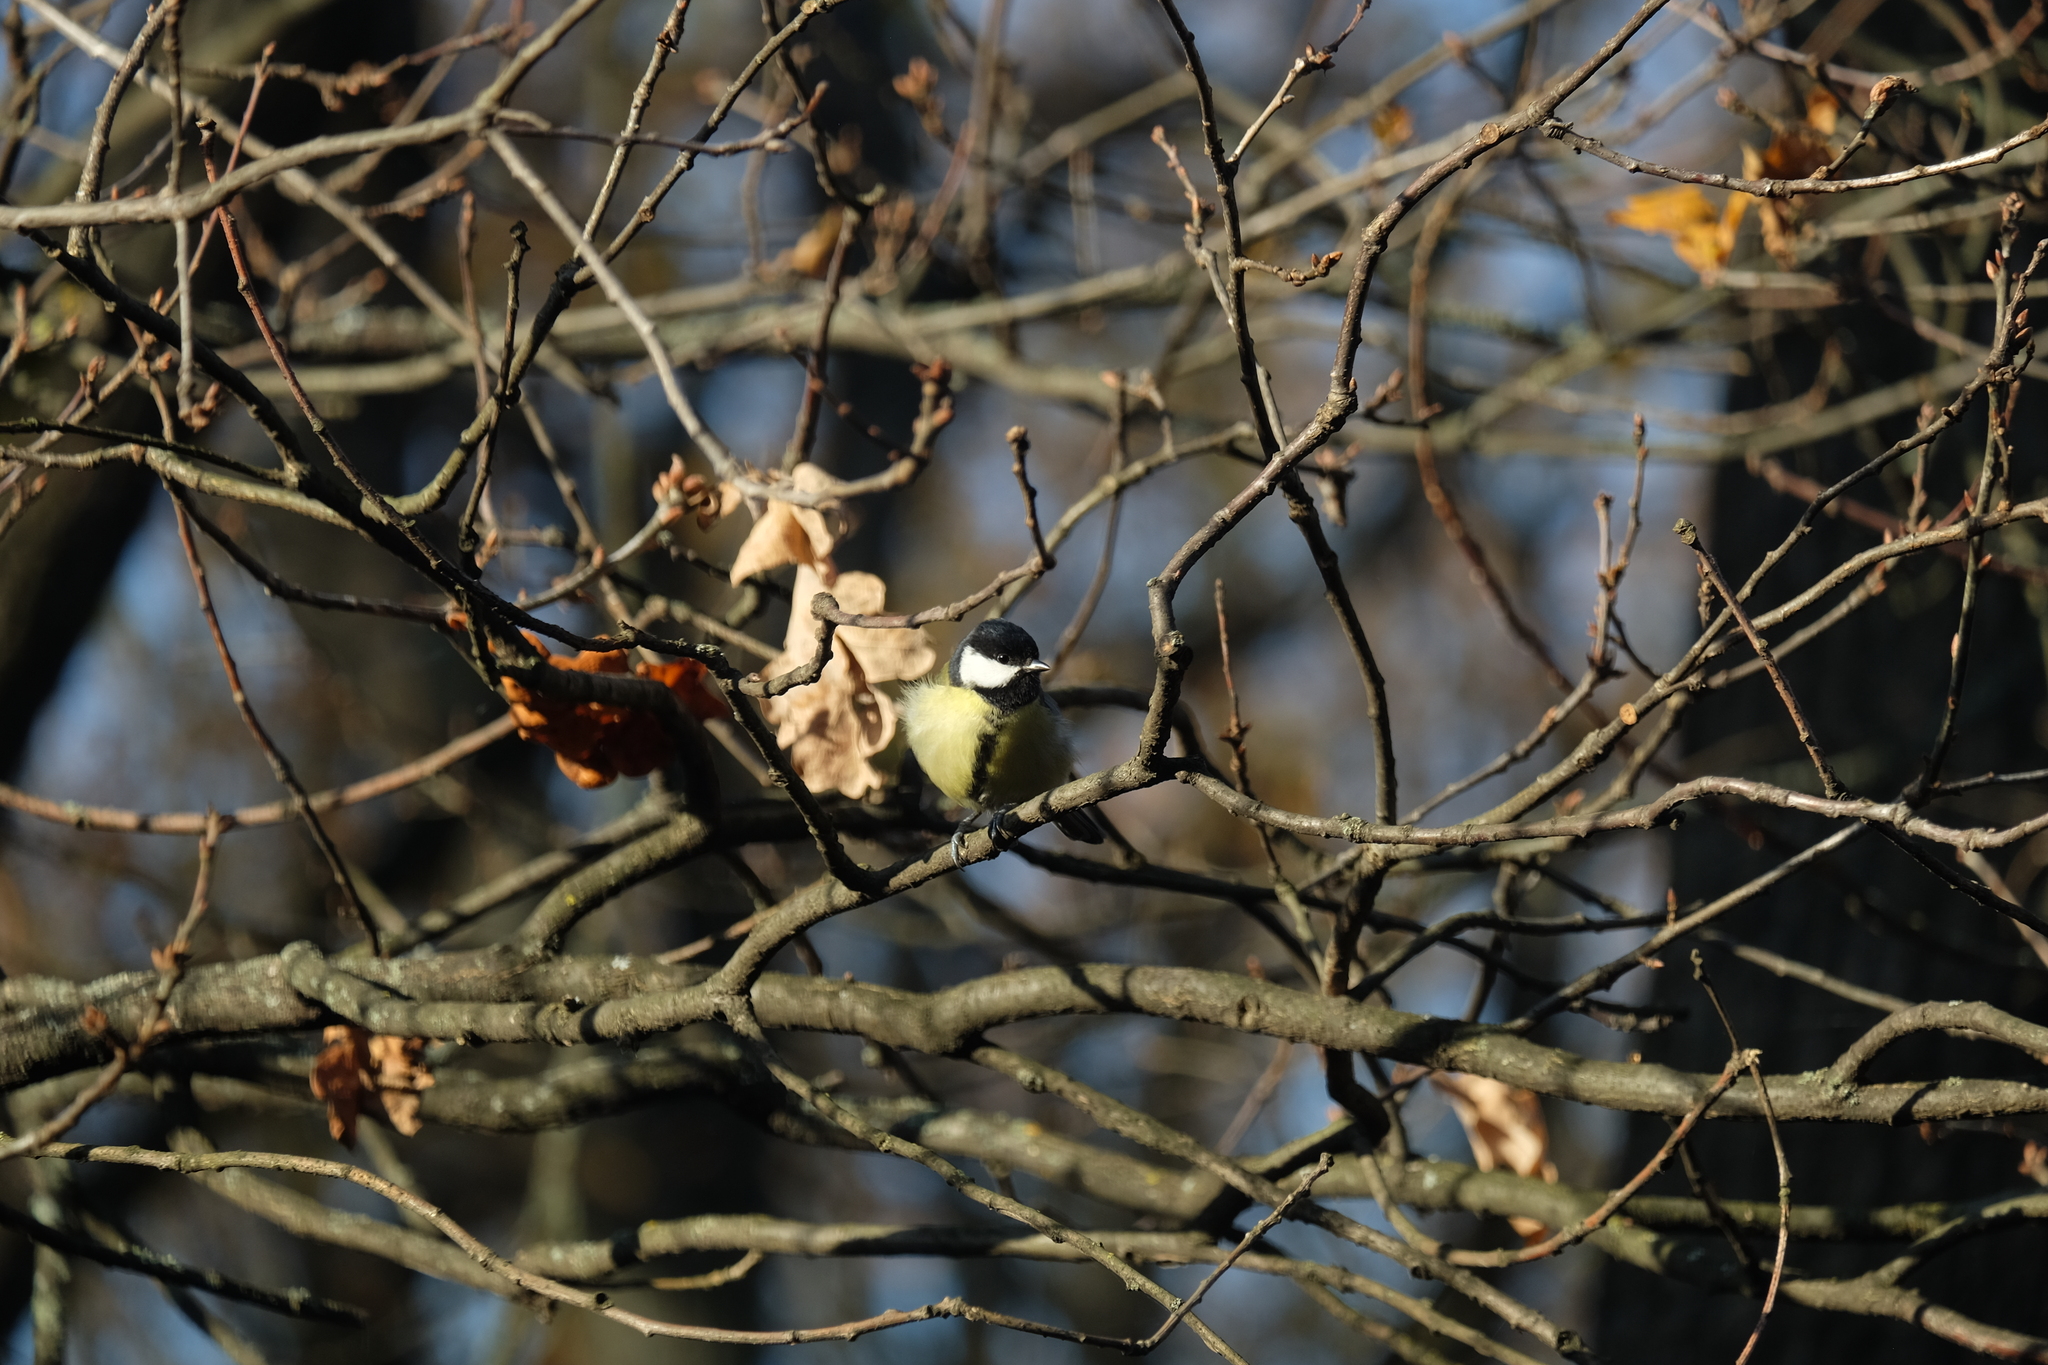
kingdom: Animalia
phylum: Chordata
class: Aves
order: Passeriformes
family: Paridae
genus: Parus
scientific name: Parus major
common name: Great tit
